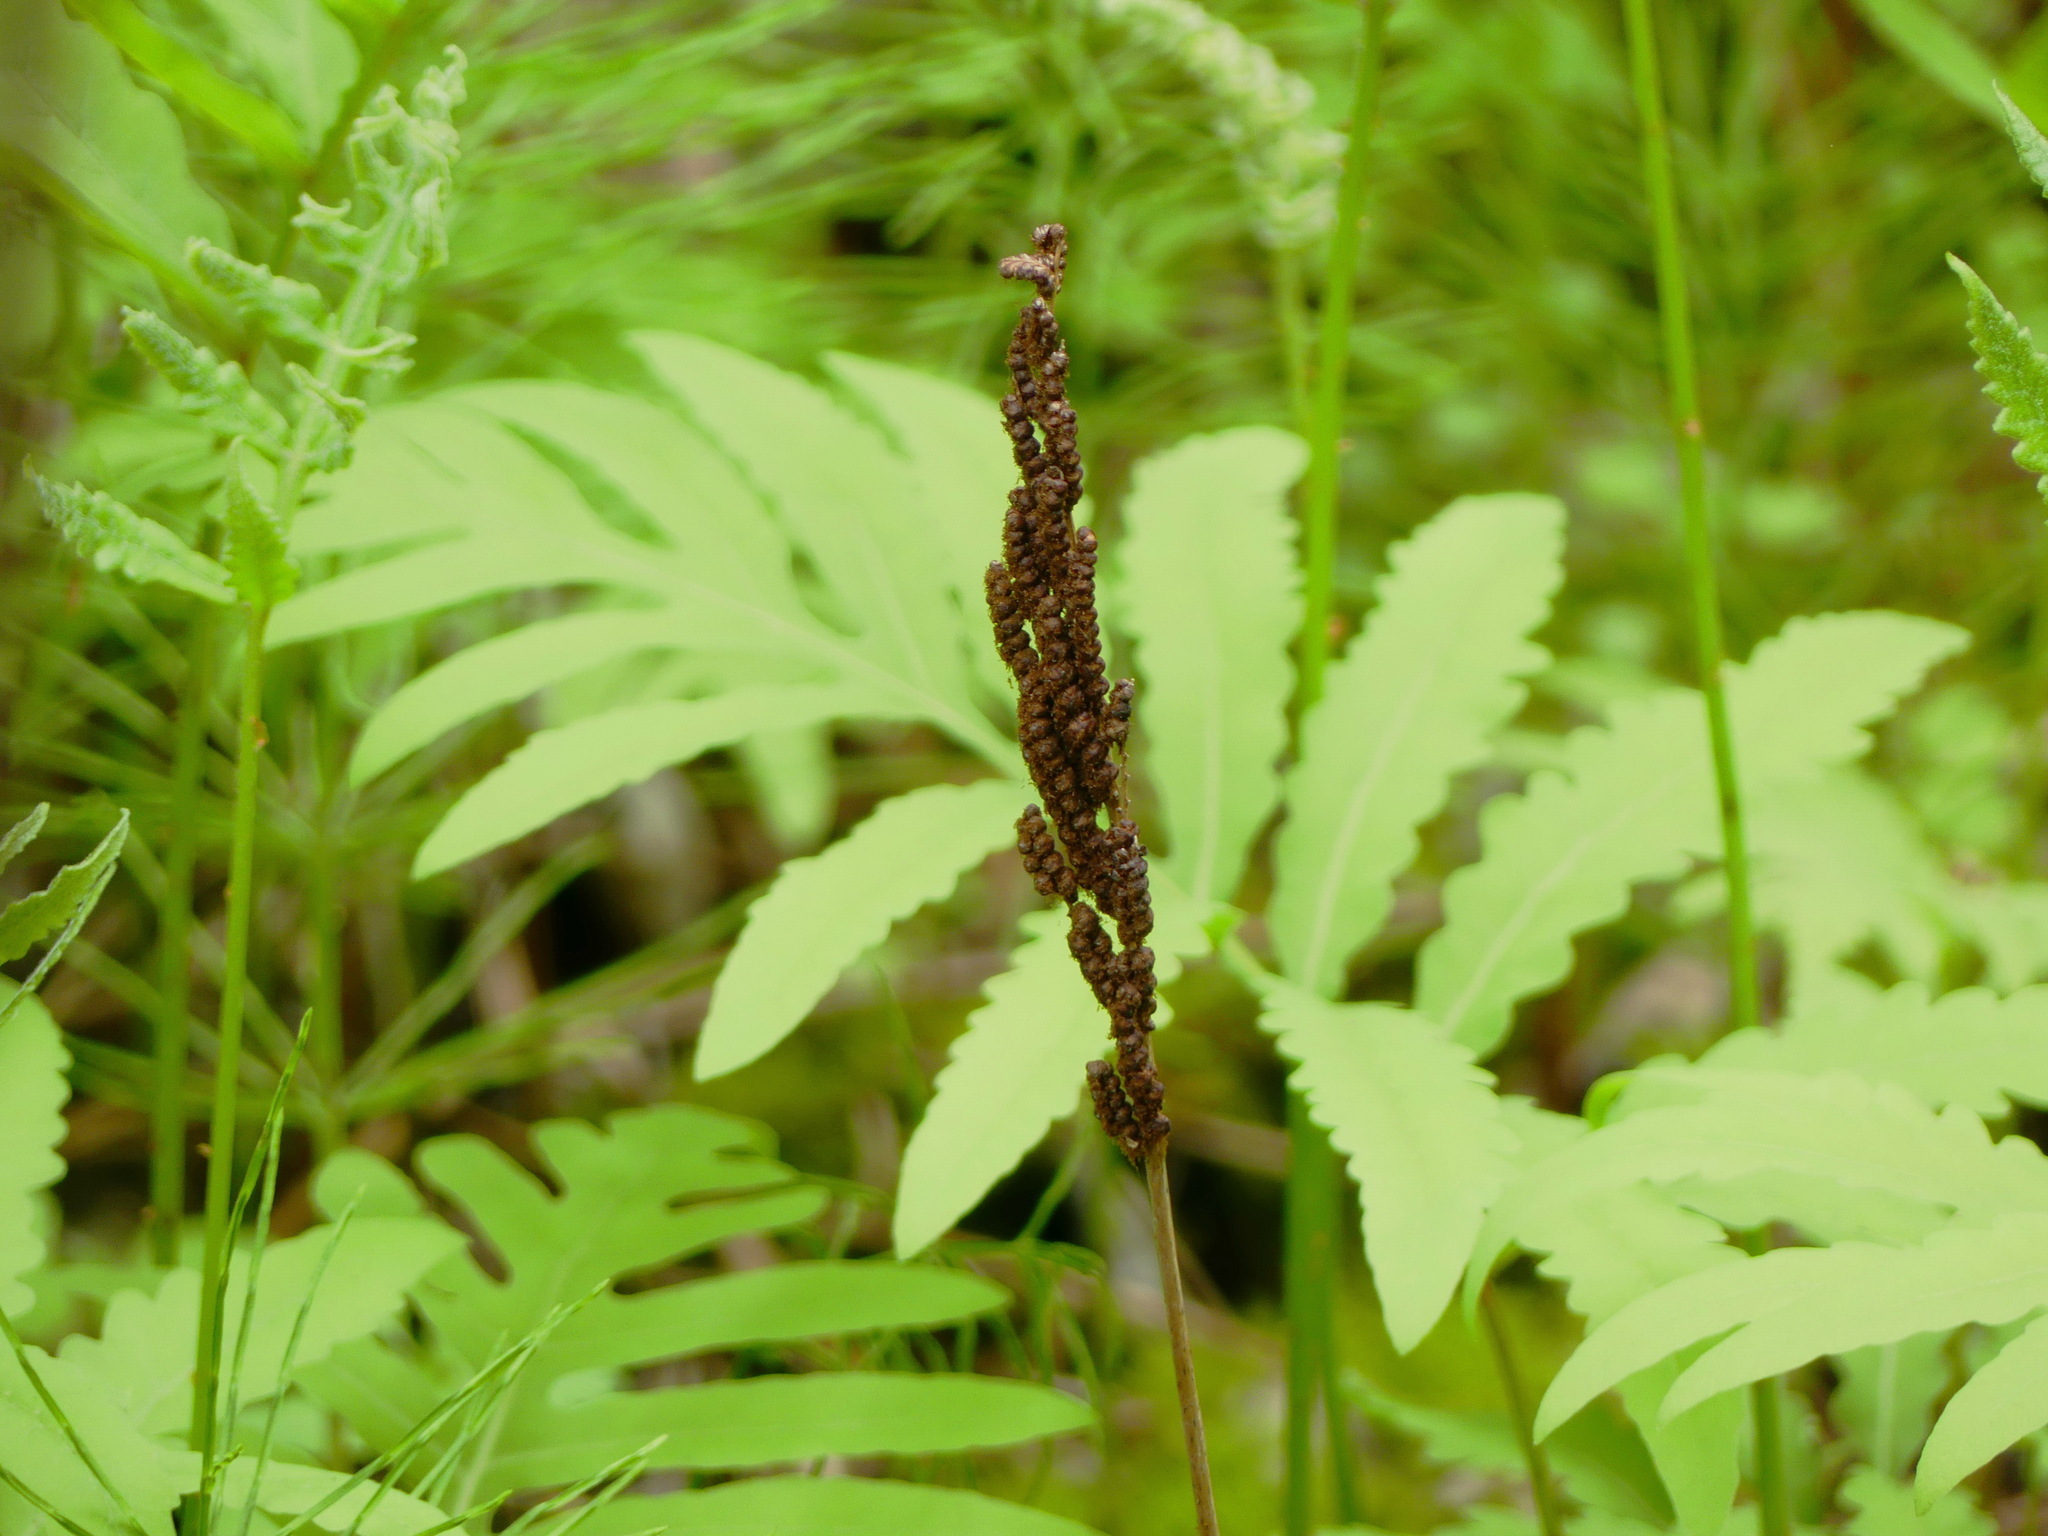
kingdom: Plantae
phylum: Tracheophyta
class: Polypodiopsida
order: Polypodiales
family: Onocleaceae
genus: Onoclea
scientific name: Onoclea sensibilis
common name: Sensitive fern
